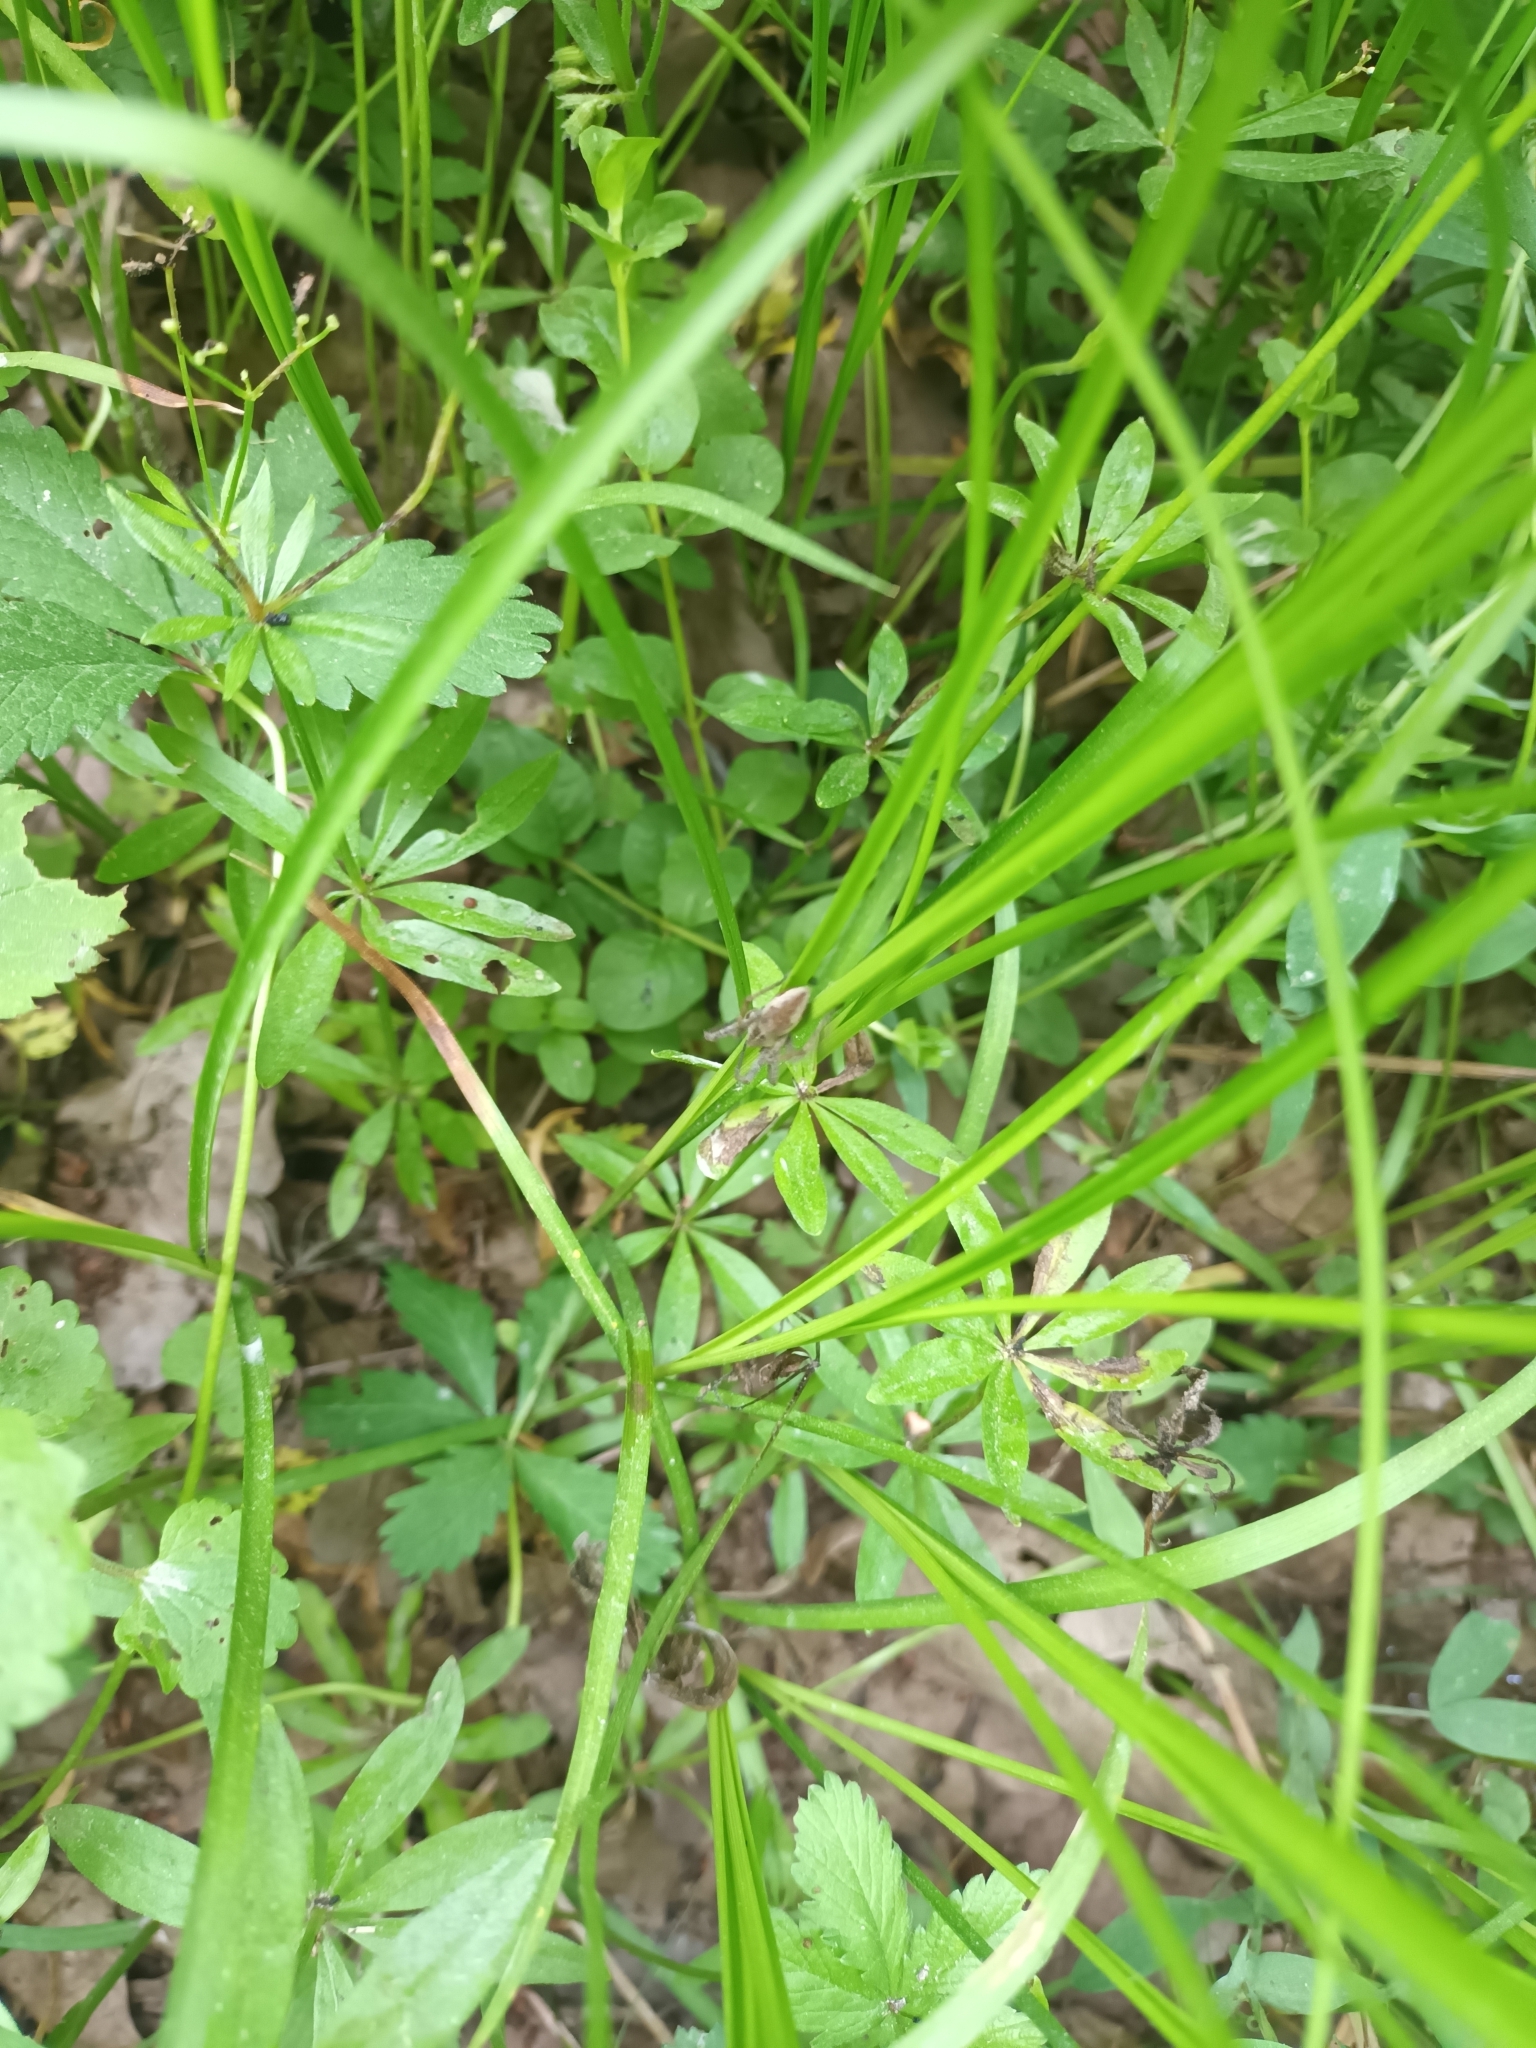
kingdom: Animalia
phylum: Arthropoda
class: Arachnida
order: Araneae
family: Pisauridae
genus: Pisaura
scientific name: Pisaura mirabilis
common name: Tent spider
